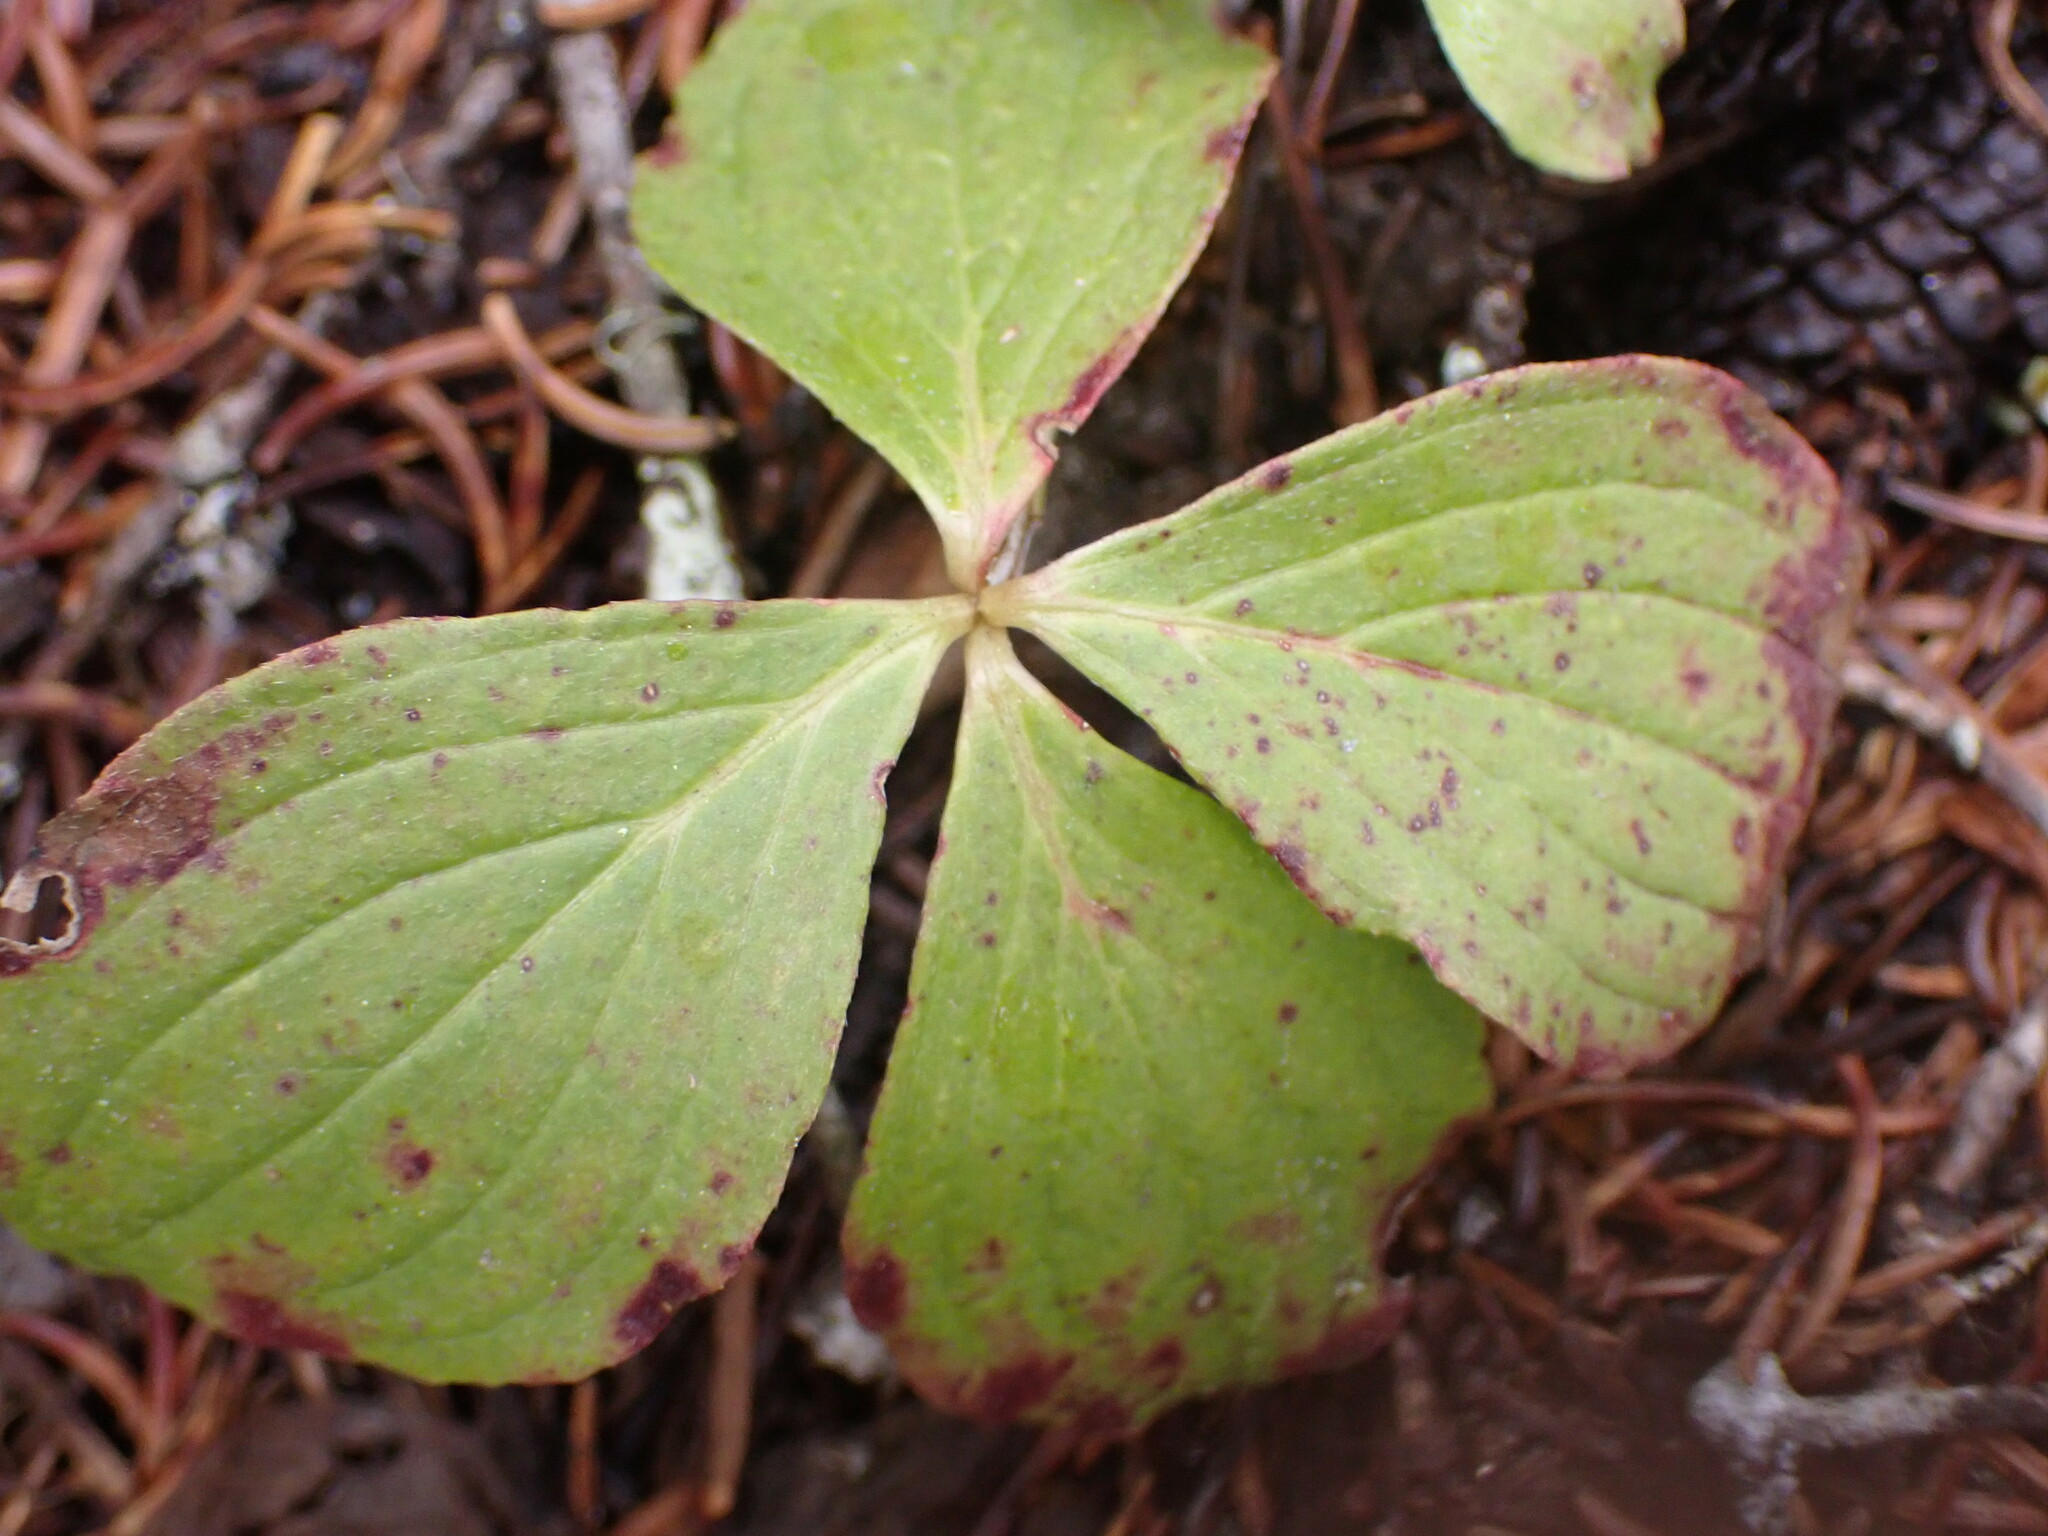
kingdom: Plantae
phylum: Tracheophyta
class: Magnoliopsida
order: Cornales
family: Cornaceae
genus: Cornus
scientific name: Cornus unalaschkensis
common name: Alaska bunchberry
